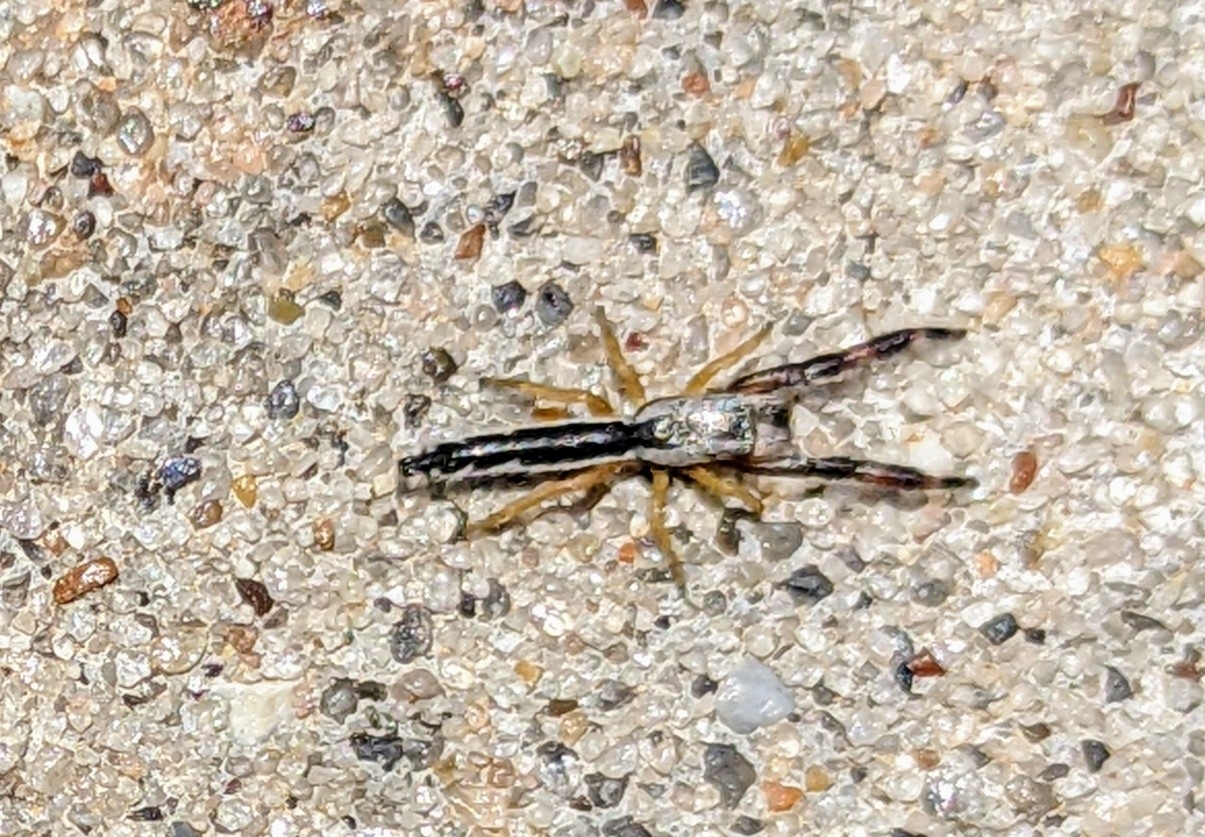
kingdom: Animalia
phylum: Arthropoda
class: Arachnida
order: Araneae
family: Salticidae
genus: Marpissa
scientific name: Marpissa pikei
